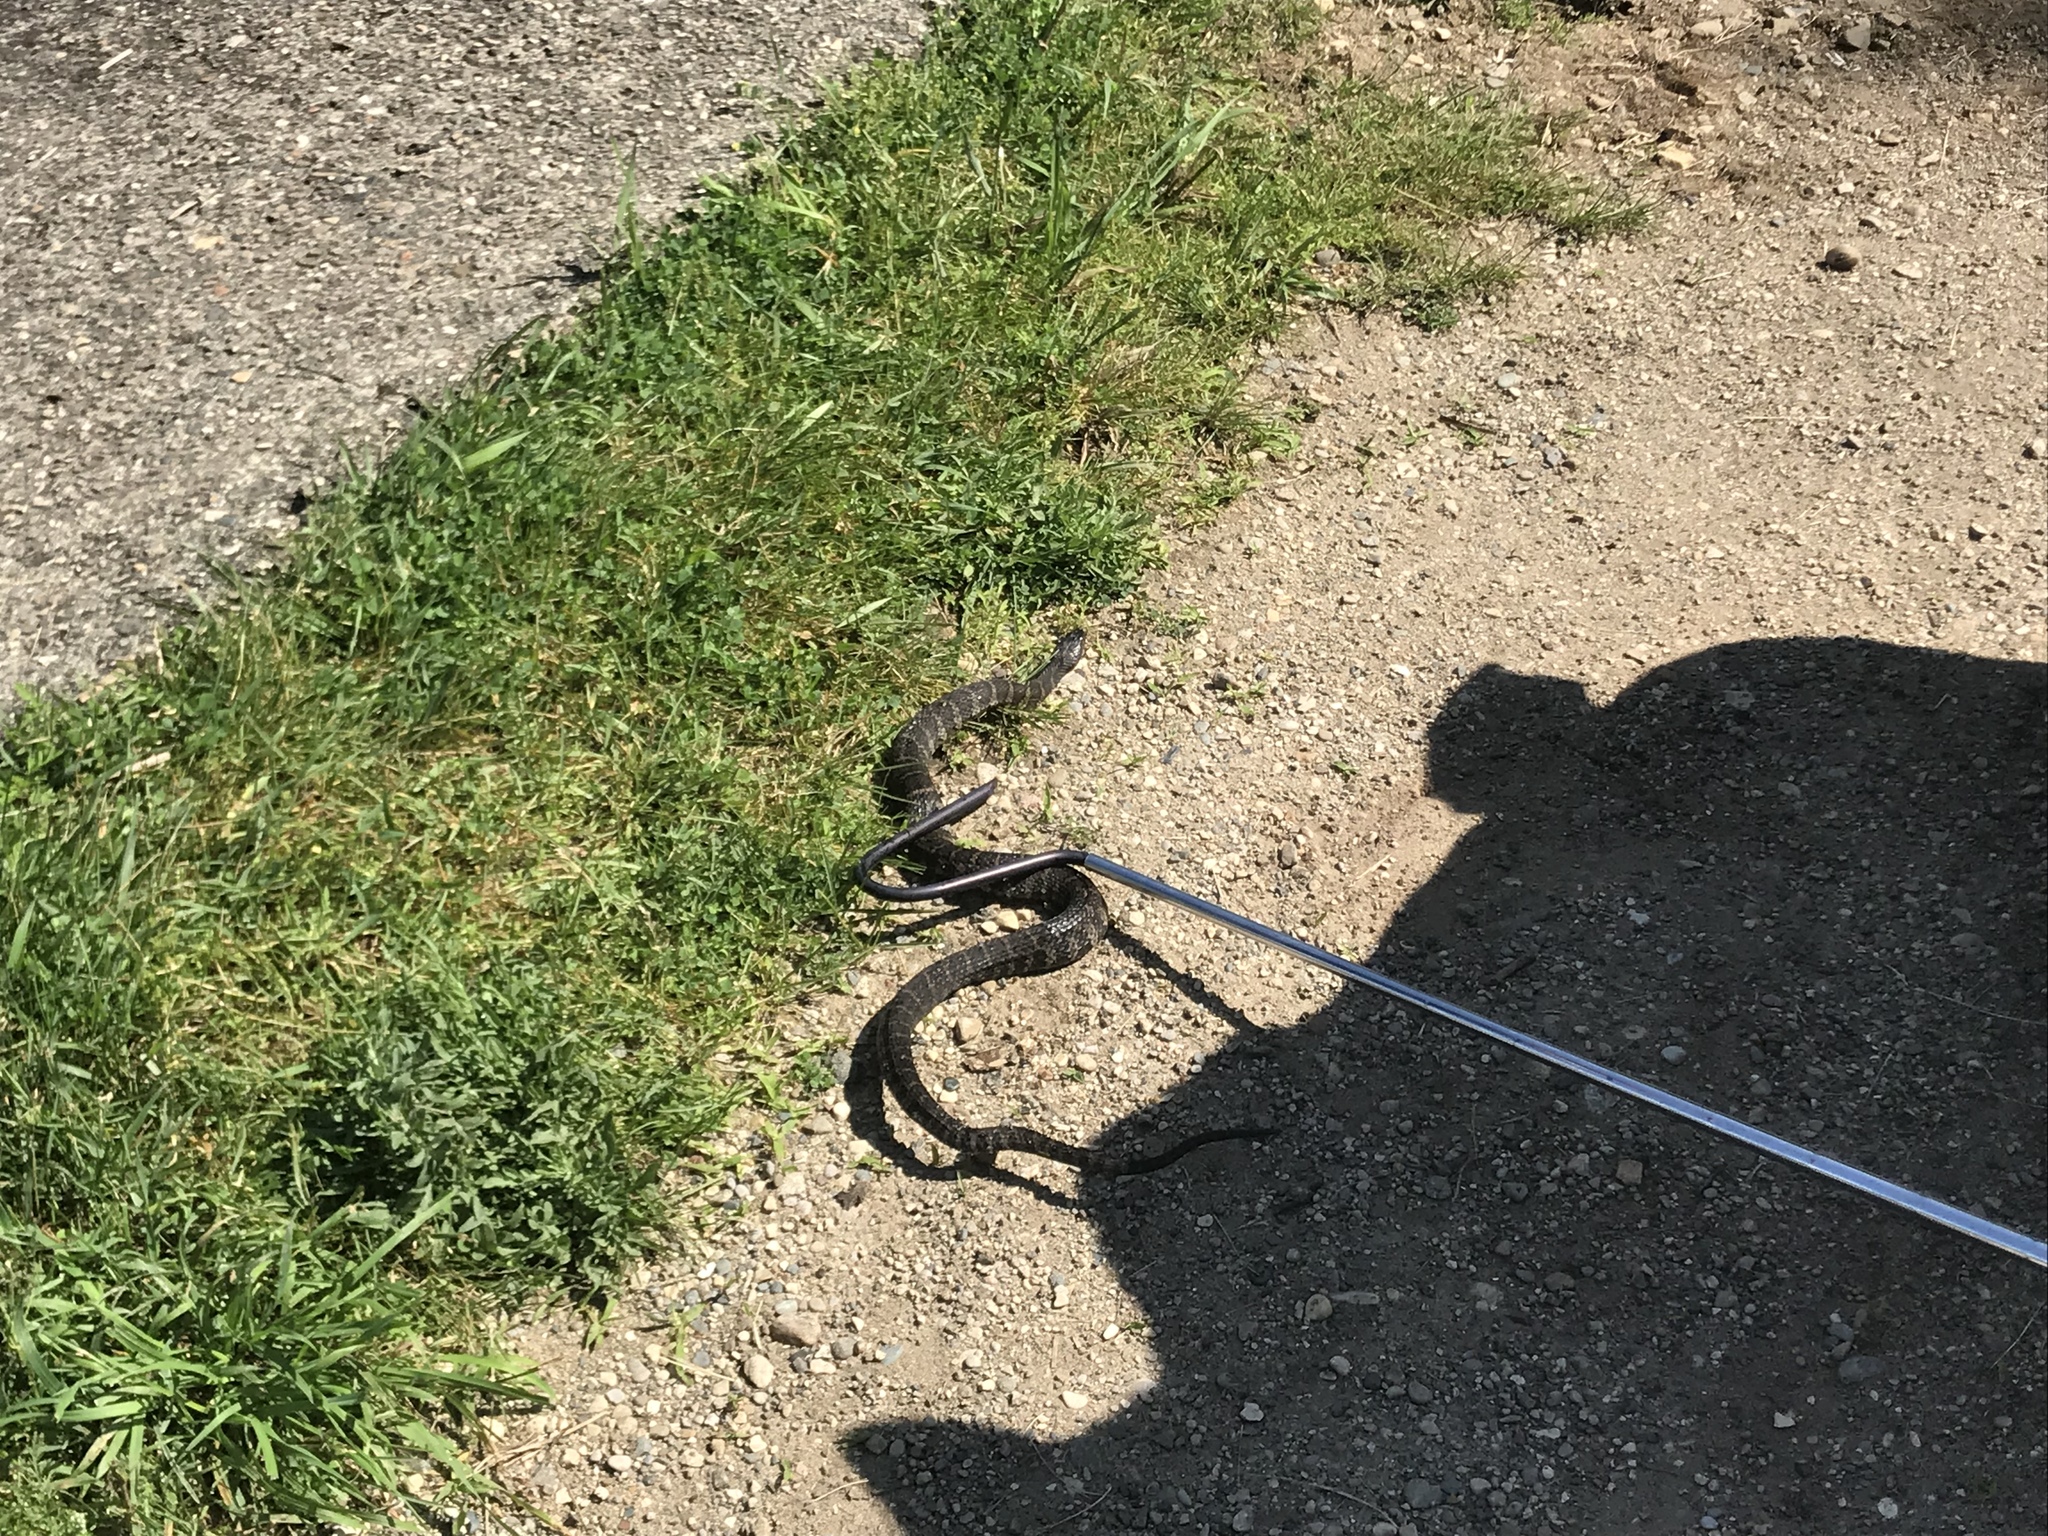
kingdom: Animalia
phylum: Chordata
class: Squamata
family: Colubridae
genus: Nerodia
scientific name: Nerodia sipedon
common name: Northern water snake
